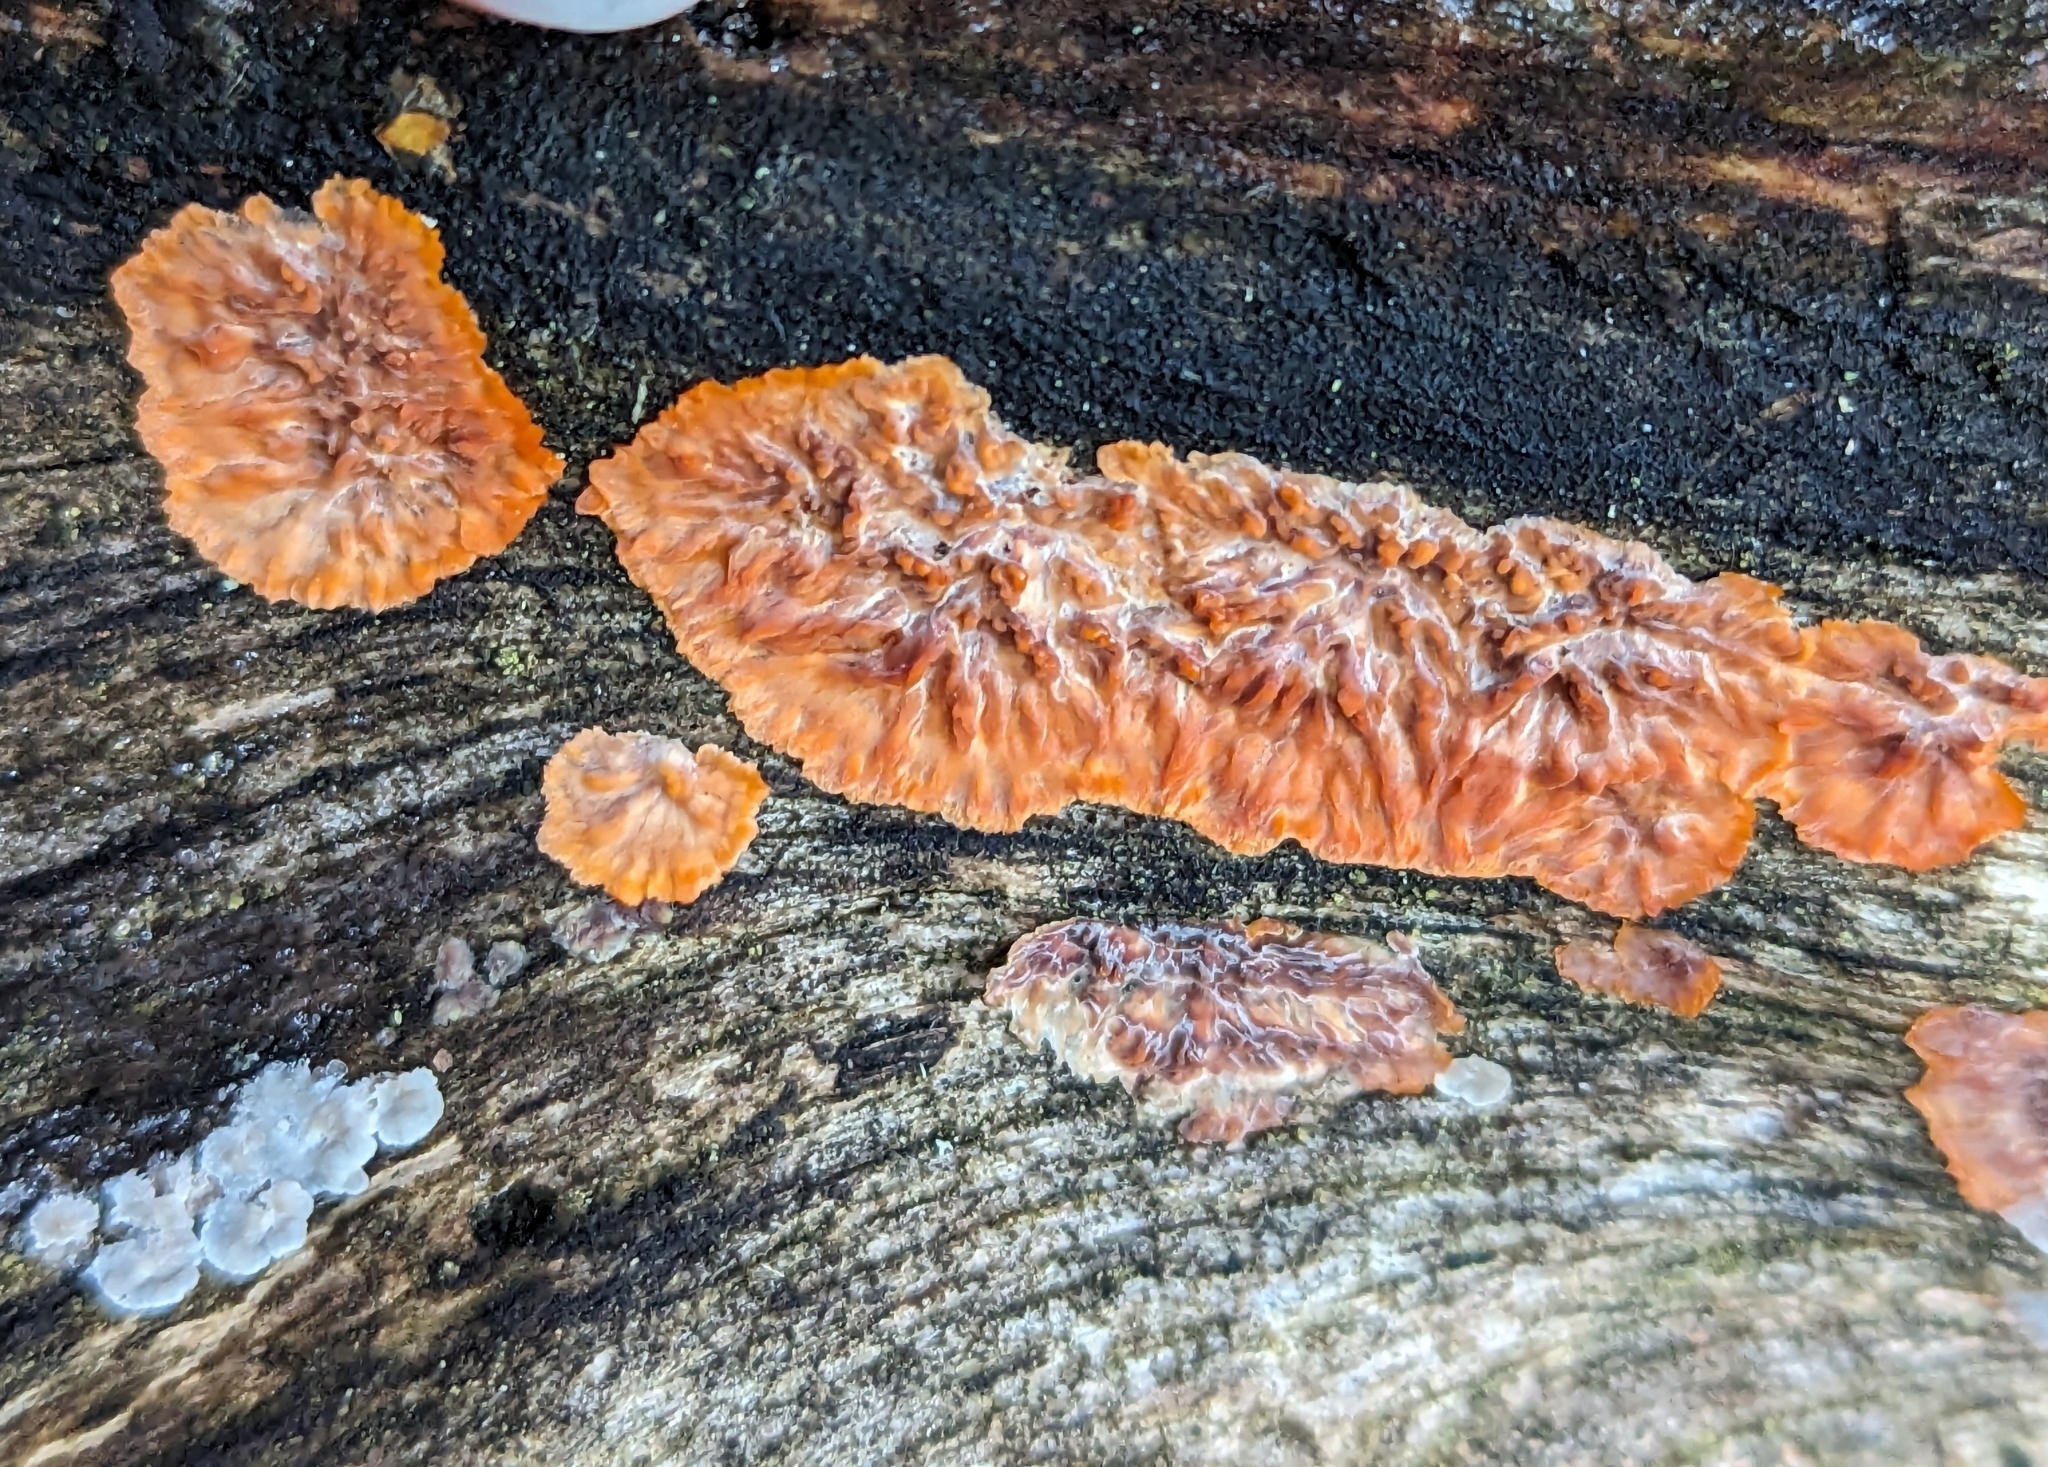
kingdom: Fungi
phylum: Basidiomycota
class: Agaricomycetes
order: Polyporales
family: Meruliaceae
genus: Phlebia
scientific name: Phlebia radiata
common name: Wrinkled crust
